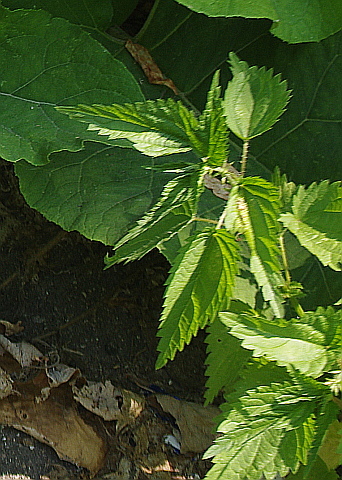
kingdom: Plantae
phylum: Tracheophyta
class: Magnoliopsida
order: Rosales
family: Urticaceae
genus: Urtica
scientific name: Urtica dioica
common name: Common nettle
